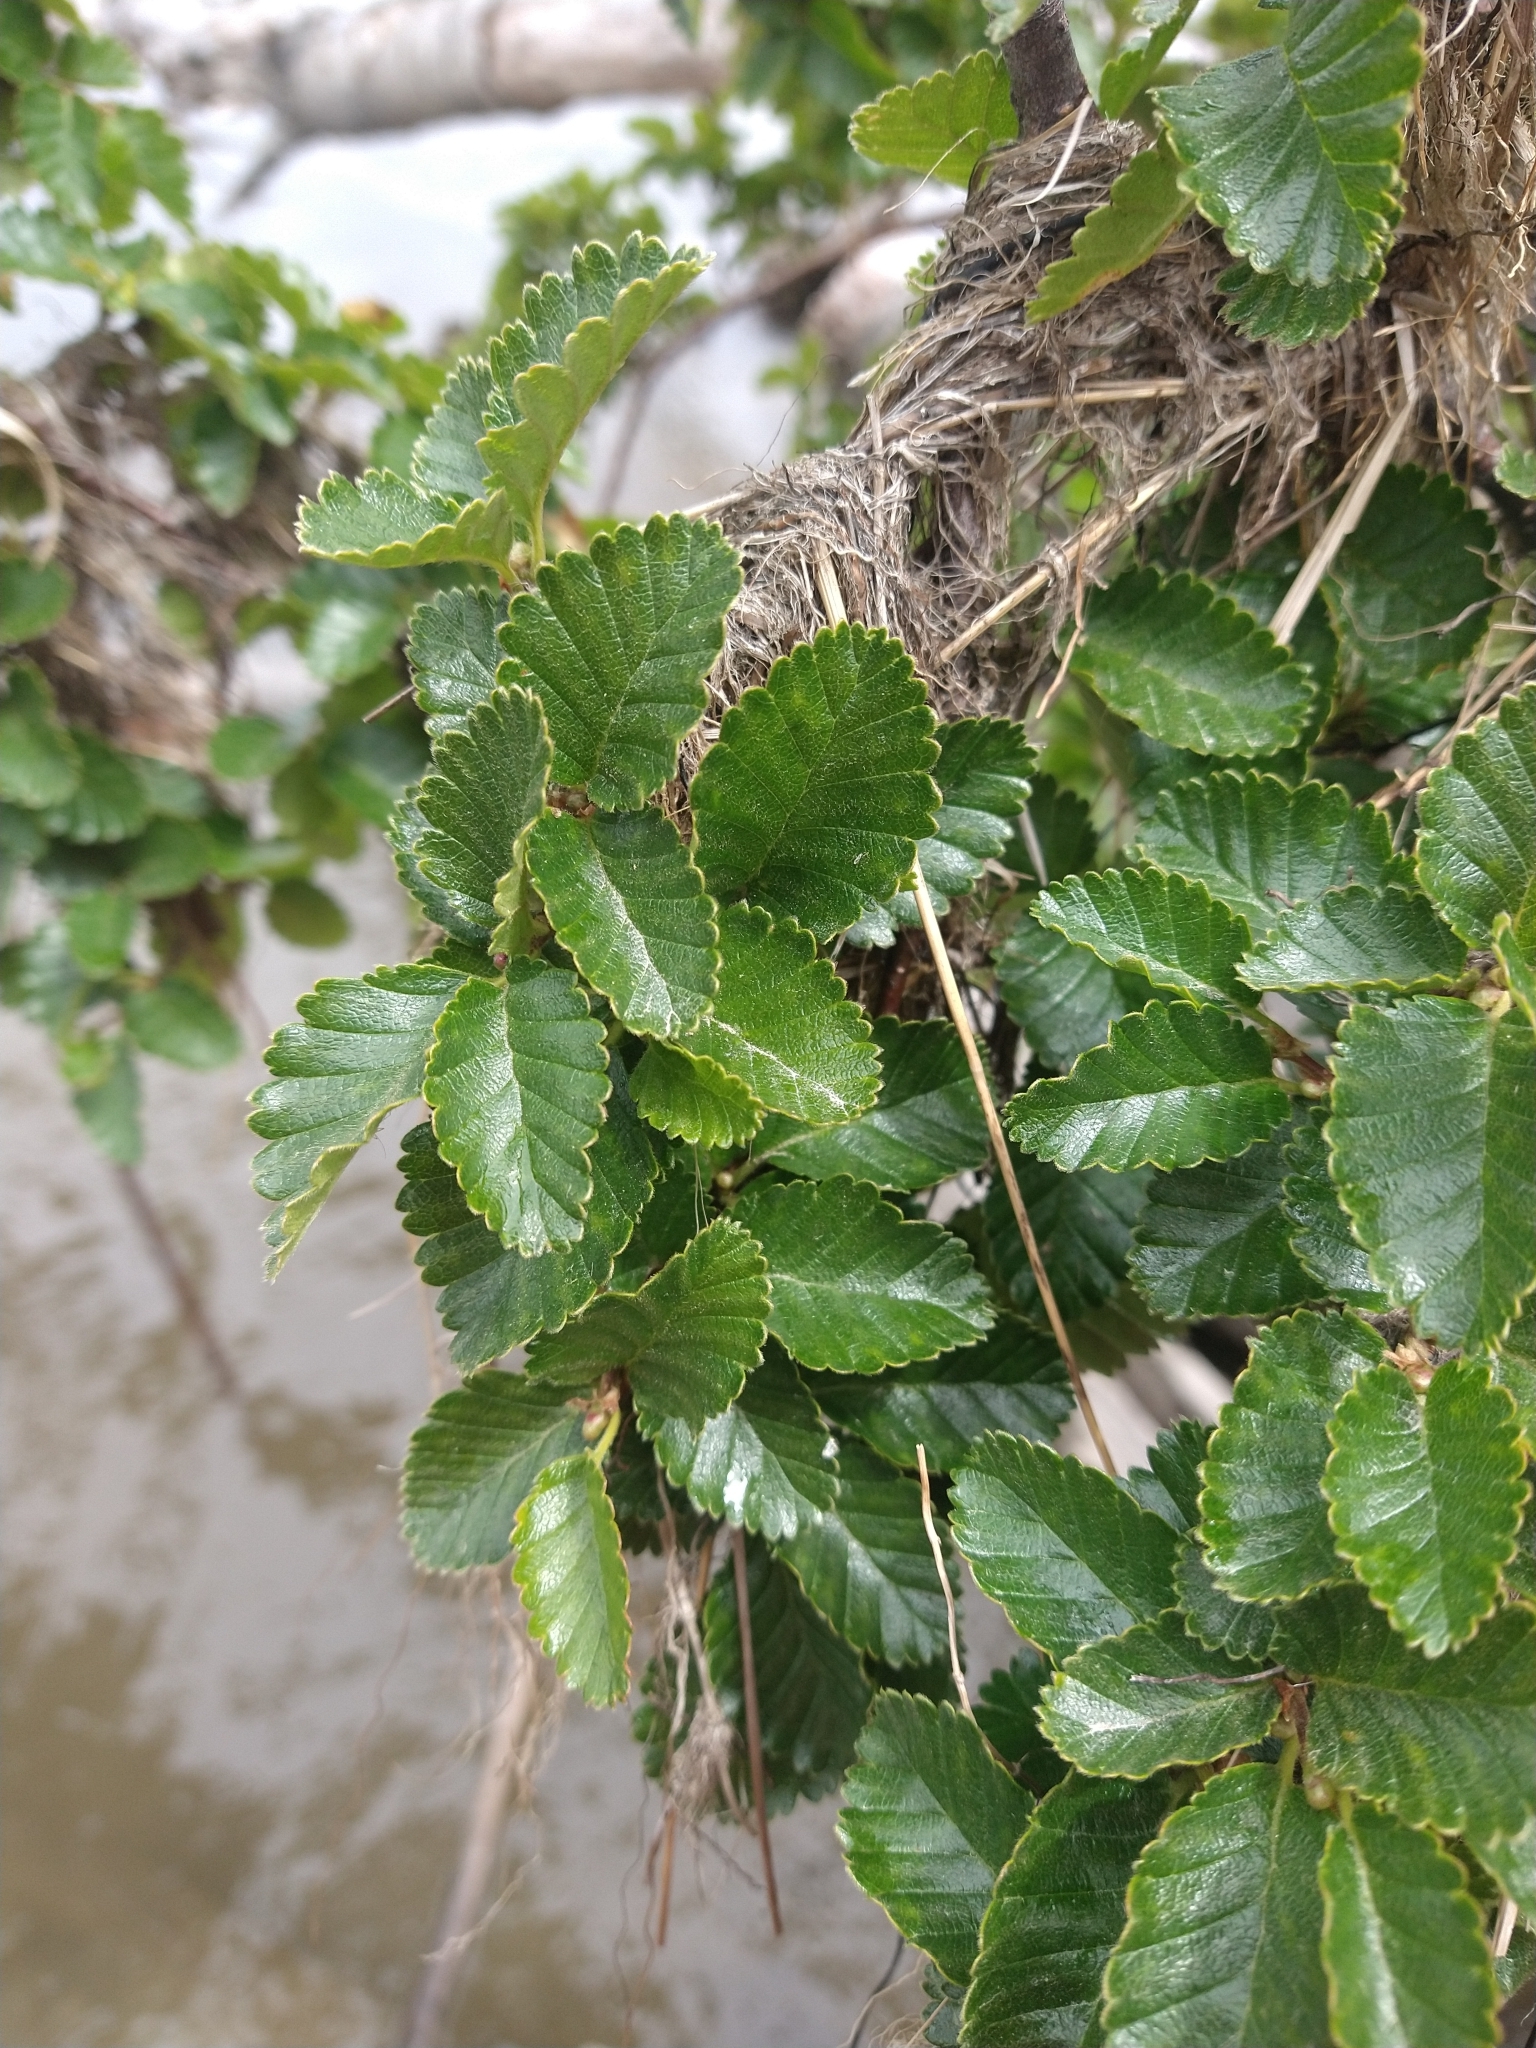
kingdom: Plantae
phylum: Tracheophyta
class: Magnoliopsida
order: Fagales
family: Nothofagaceae
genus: Nothofagus
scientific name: Nothofagus pumilio
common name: Lenga beech
